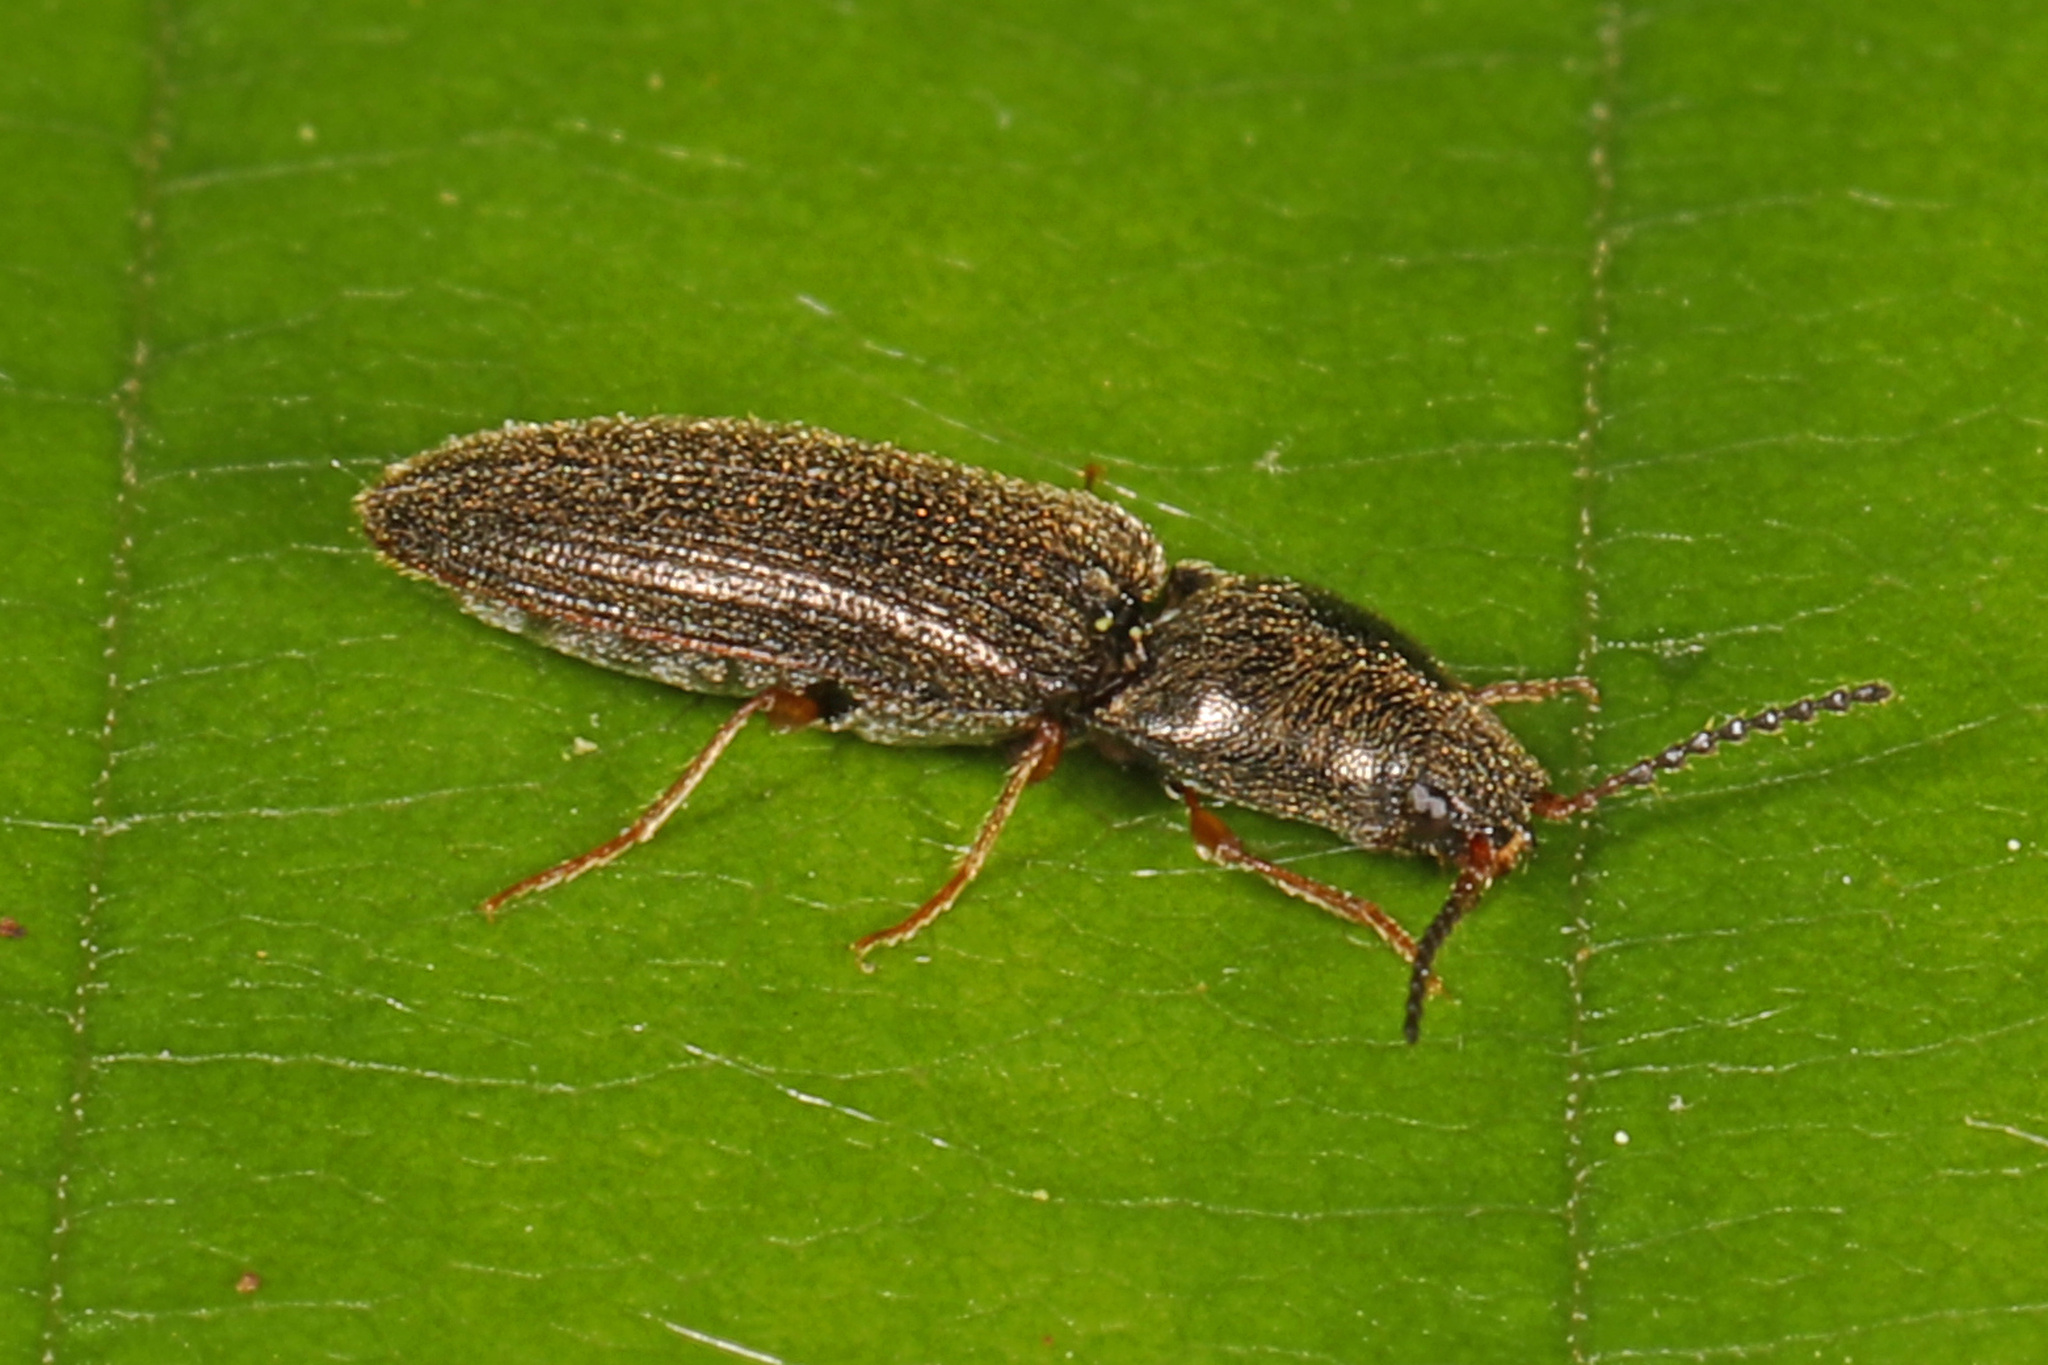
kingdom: Animalia
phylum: Arthropoda
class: Insecta
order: Coleoptera
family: Elateridae
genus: Limonius
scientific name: Limonius quercinus
